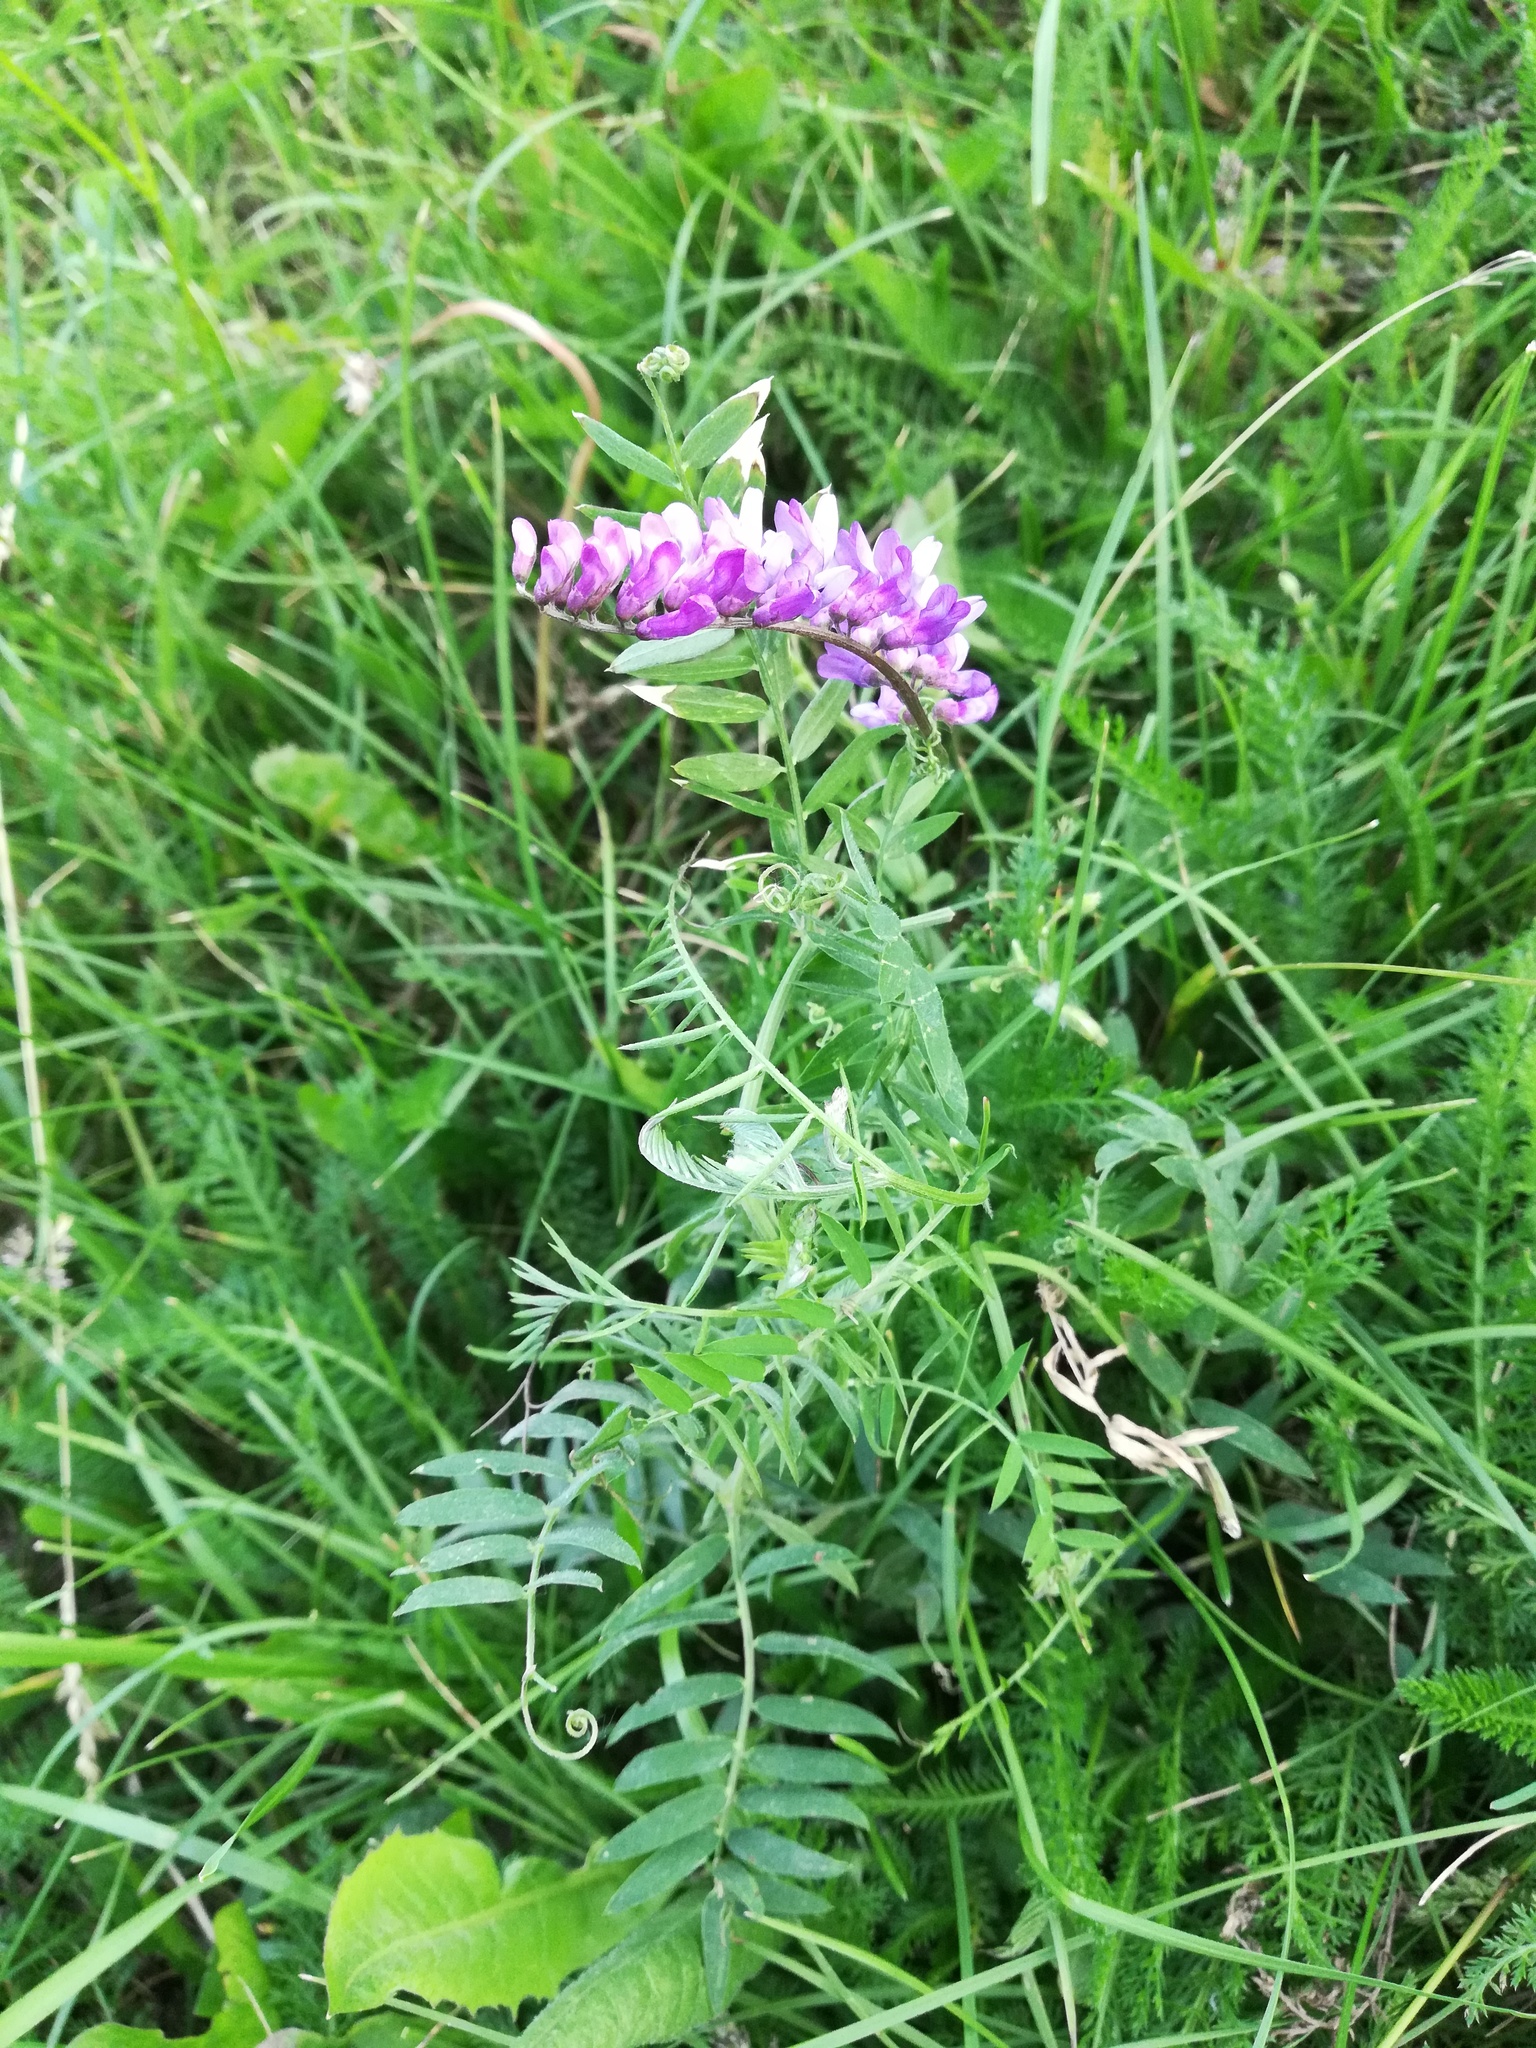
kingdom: Plantae
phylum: Tracheophyta
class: Magnoliopsida
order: Fabales
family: Fabaceae
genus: Vicia
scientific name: Vicia cracca
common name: Bird vetch
